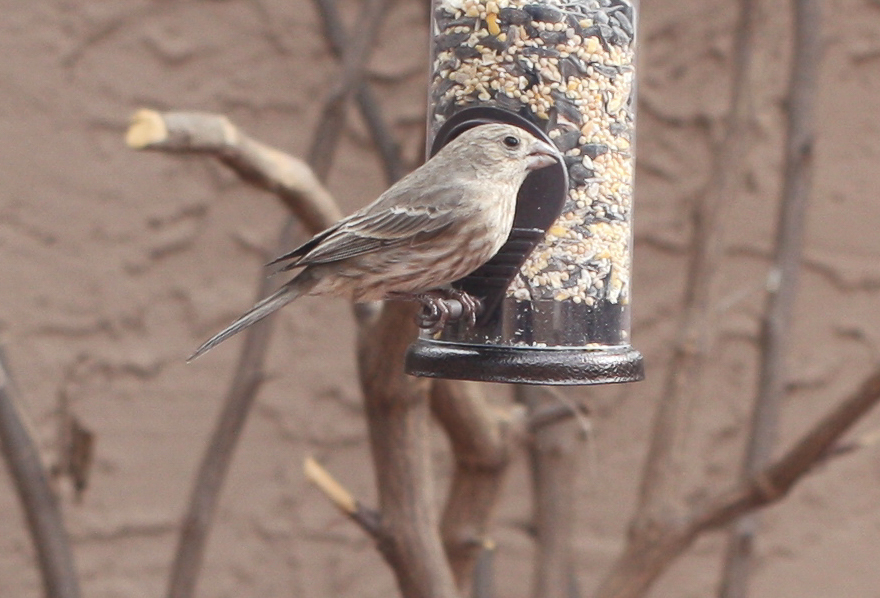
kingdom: Animalia
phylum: Chordata
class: Aves
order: Passeriformes
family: Fringillidae
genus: Haemorhous
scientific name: Haemorhous mexicanus
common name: House finch
